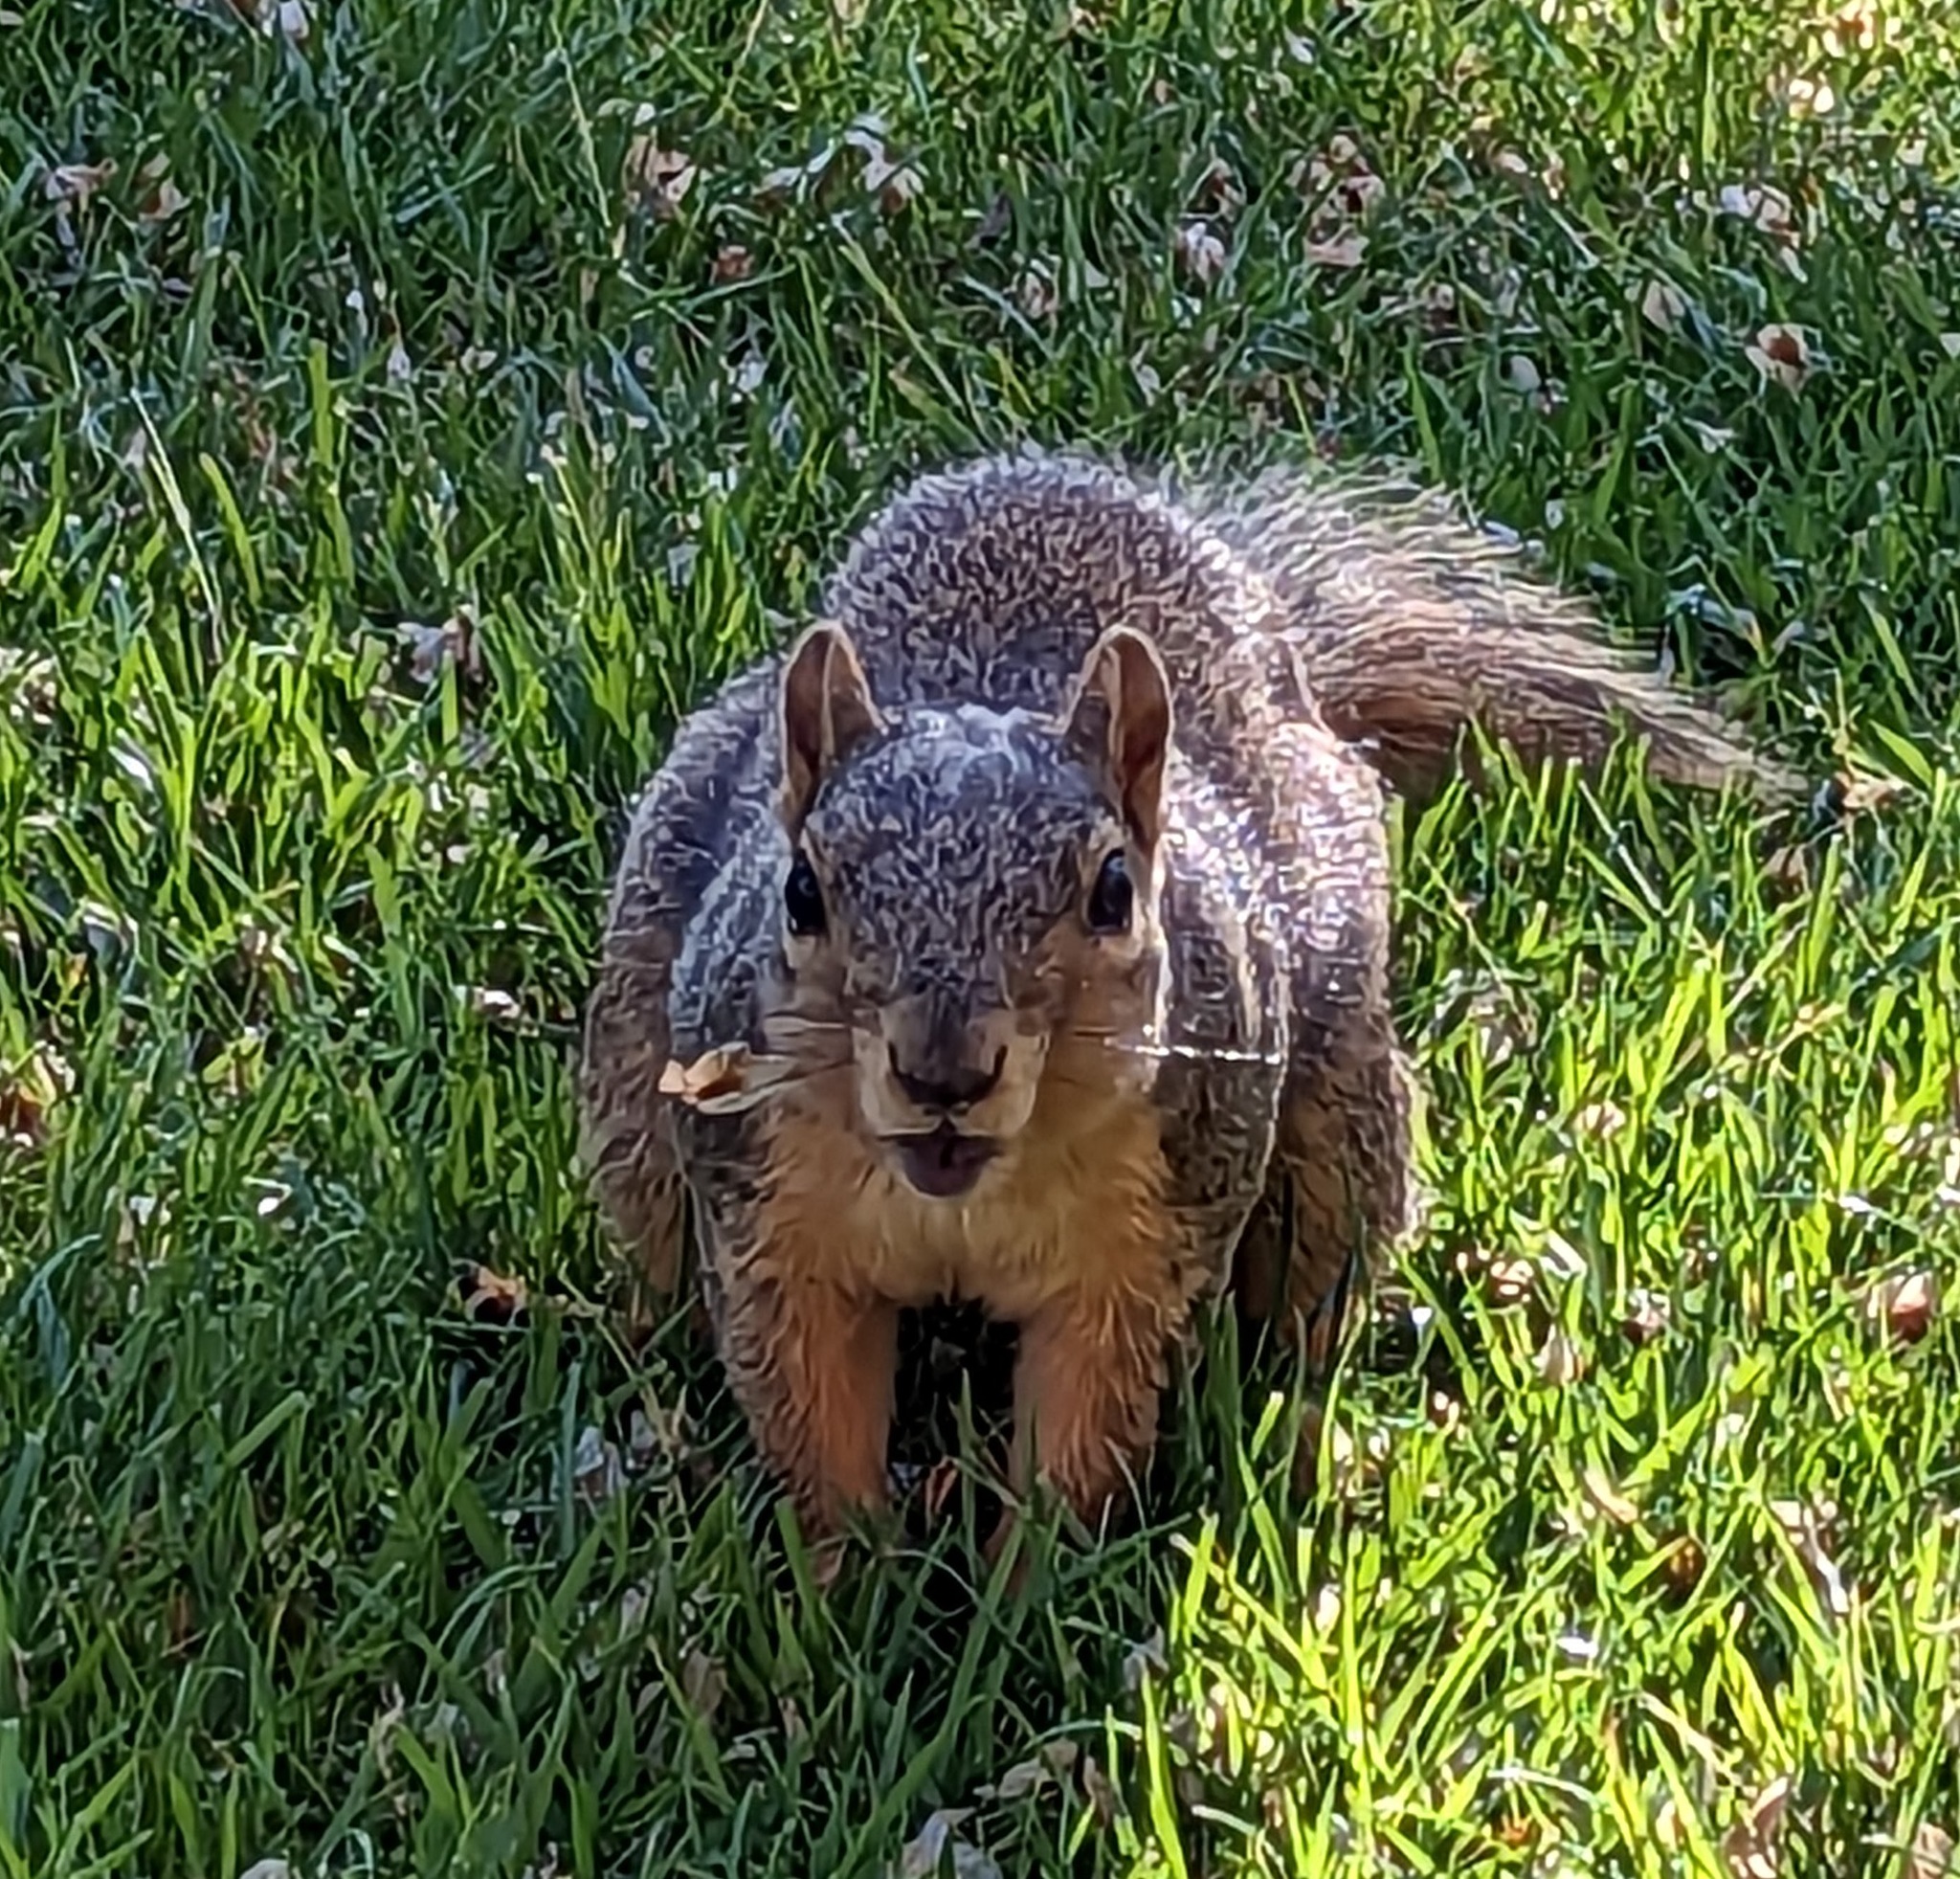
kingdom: Animalia
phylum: Chordata
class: Mammalia
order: Rodentia
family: Sciuridae
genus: Sciurus
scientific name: Sciurus niger
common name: Fox squirrel
